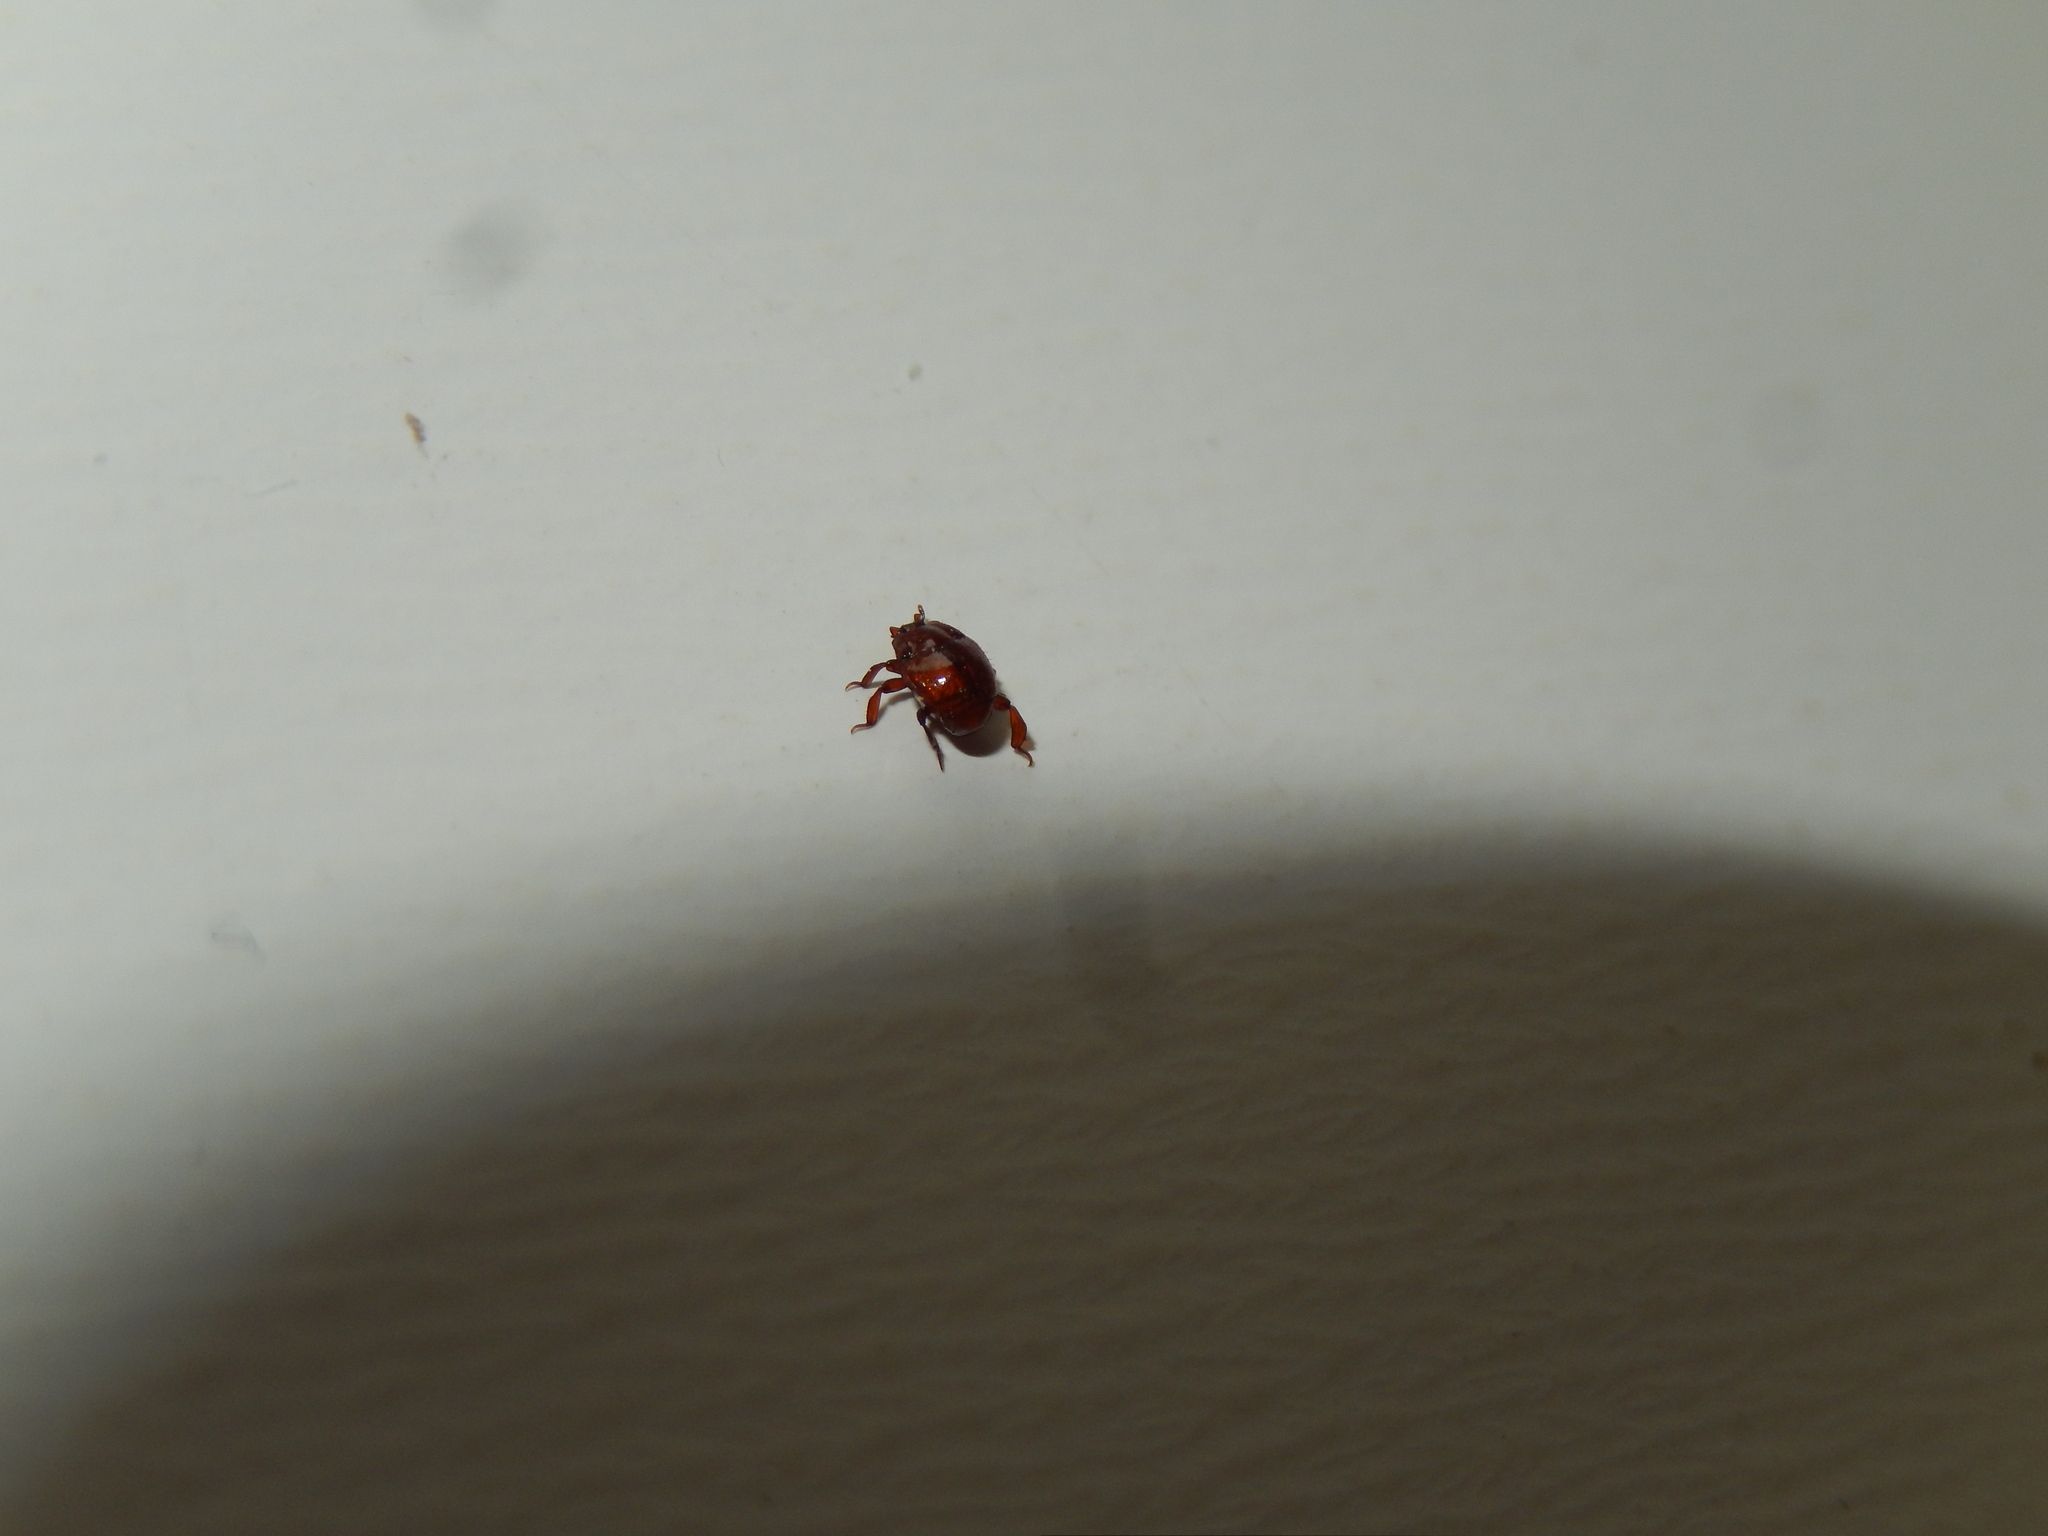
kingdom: Animalia
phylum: Arthropoda
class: Insecta
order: Coleoptera
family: Histeridae
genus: Haeterius
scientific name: Haeterius ferrugineus
